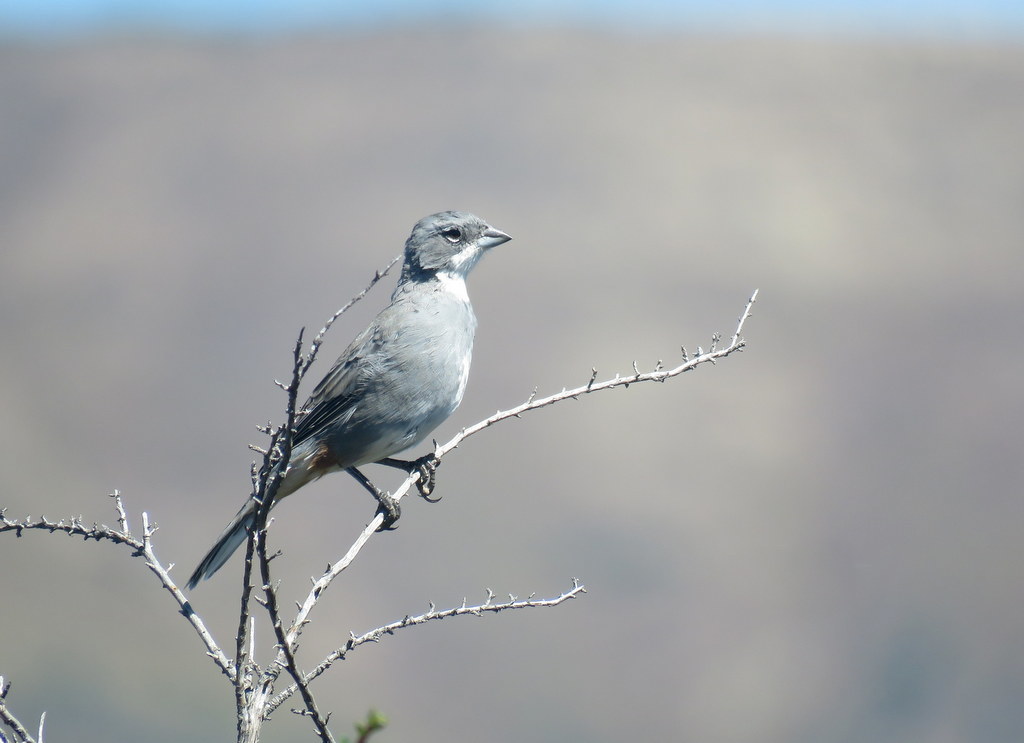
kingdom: Animalia
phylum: Chordata
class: Aves
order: Passeriformes
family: Thraupidae
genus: Diuca
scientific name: Diuca diuca
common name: Common diuca finch
